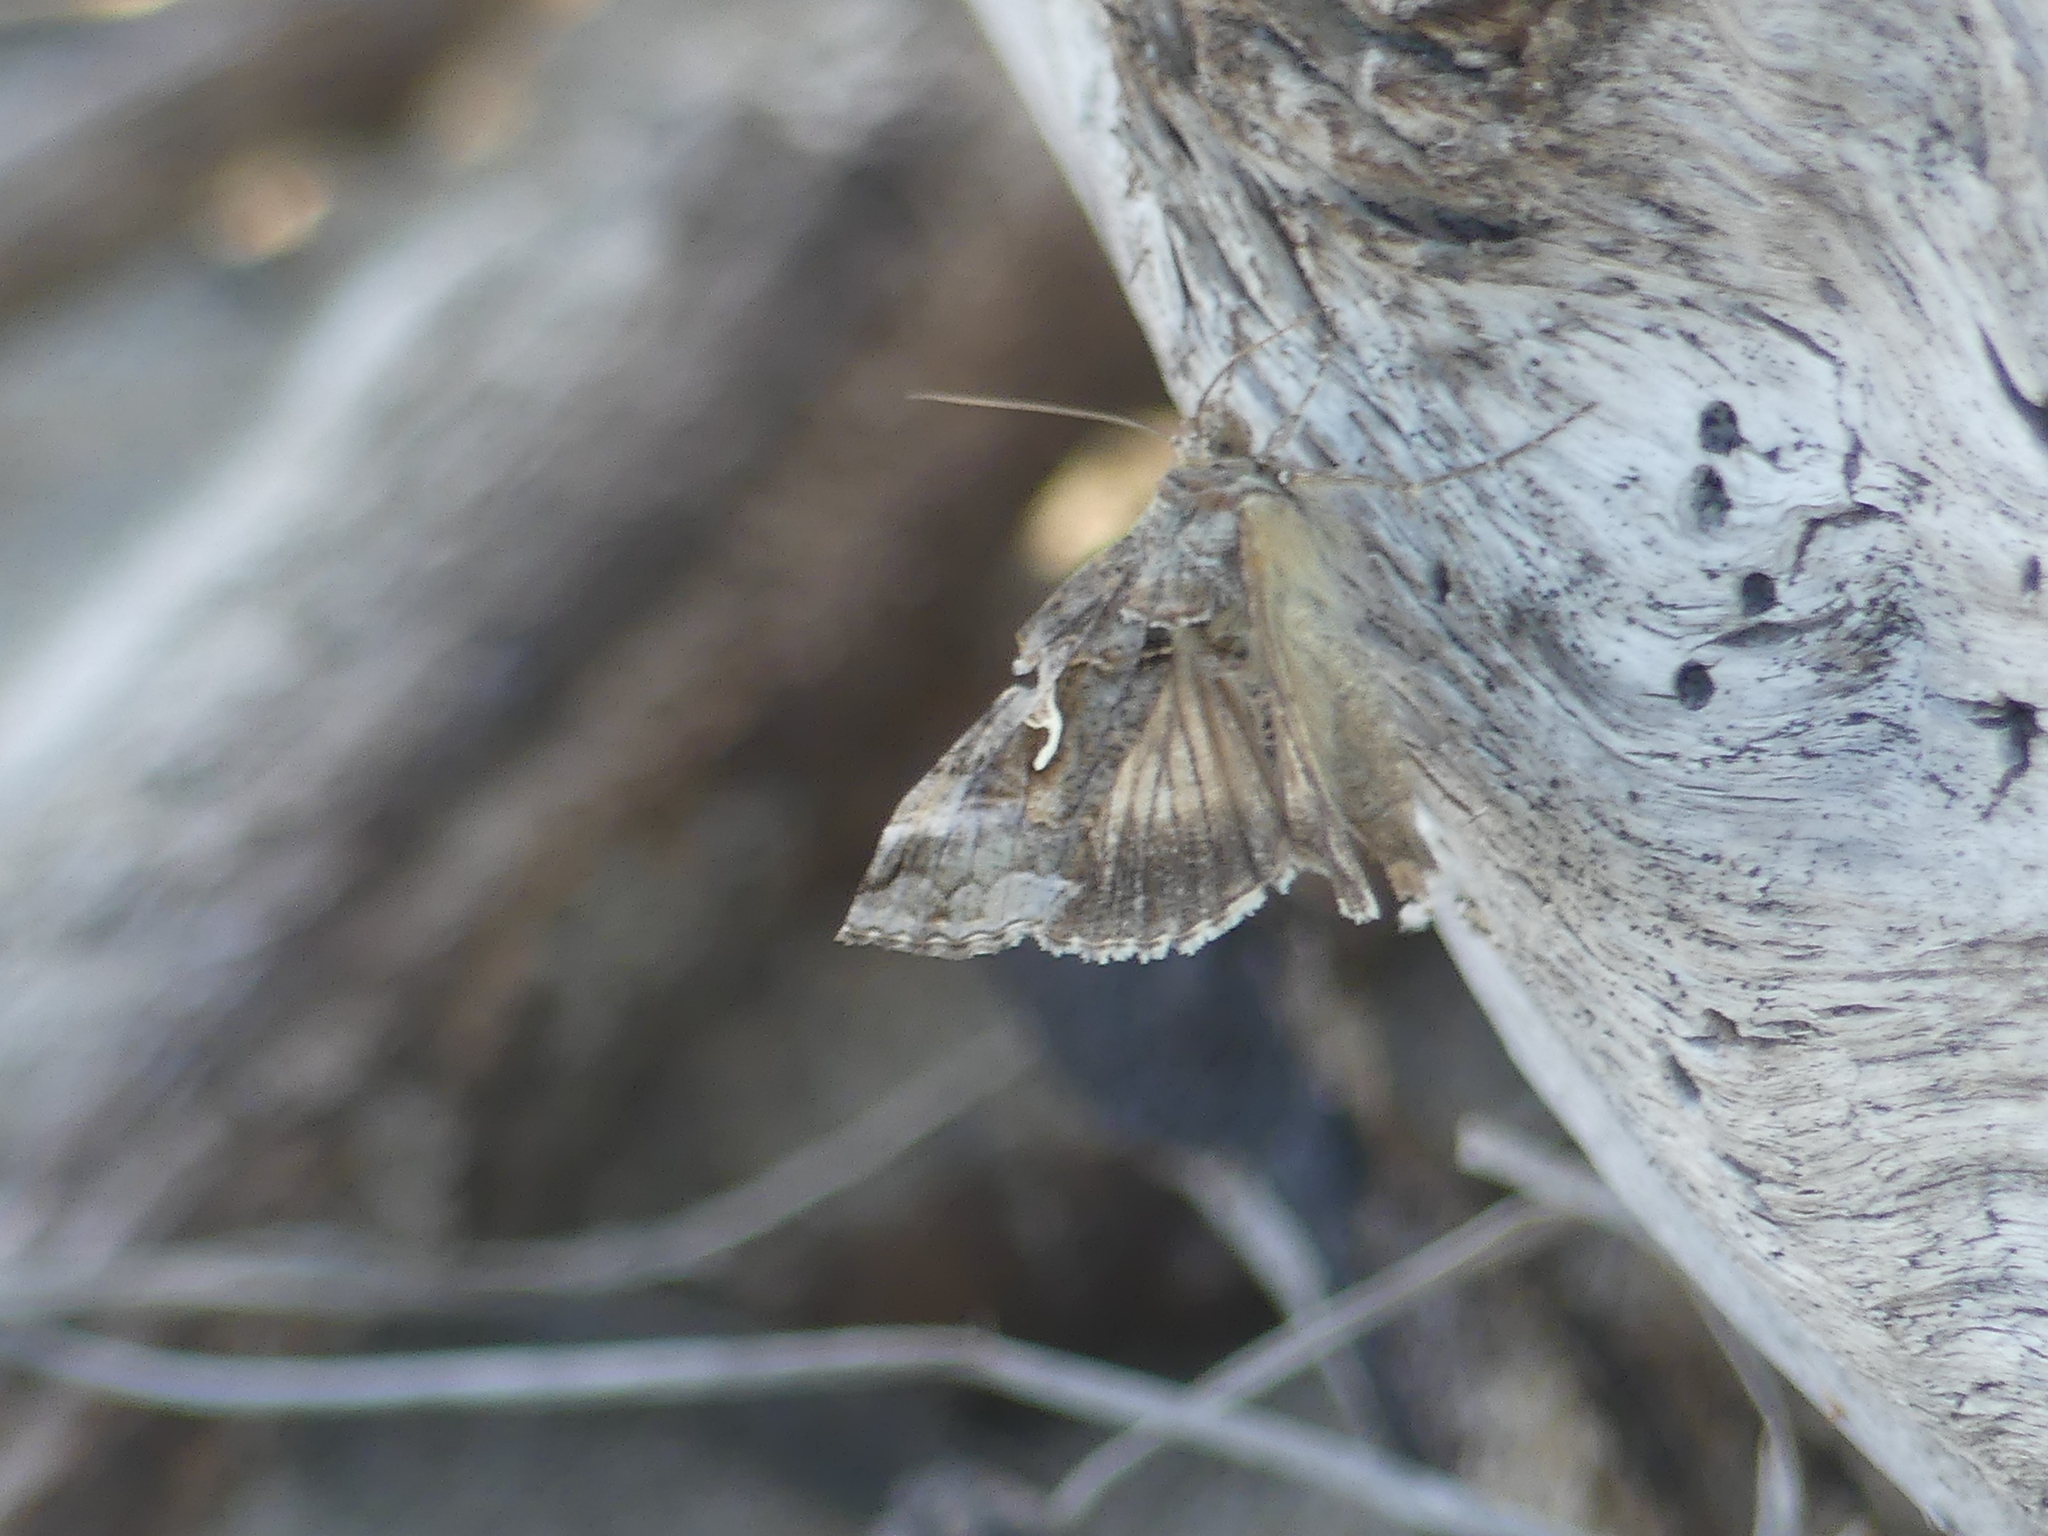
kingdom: Animalia
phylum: Arthropoda
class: Insecta
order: Lepidoptera
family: Noctuidae
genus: Autographa
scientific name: Autographa gamma
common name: Silver y
